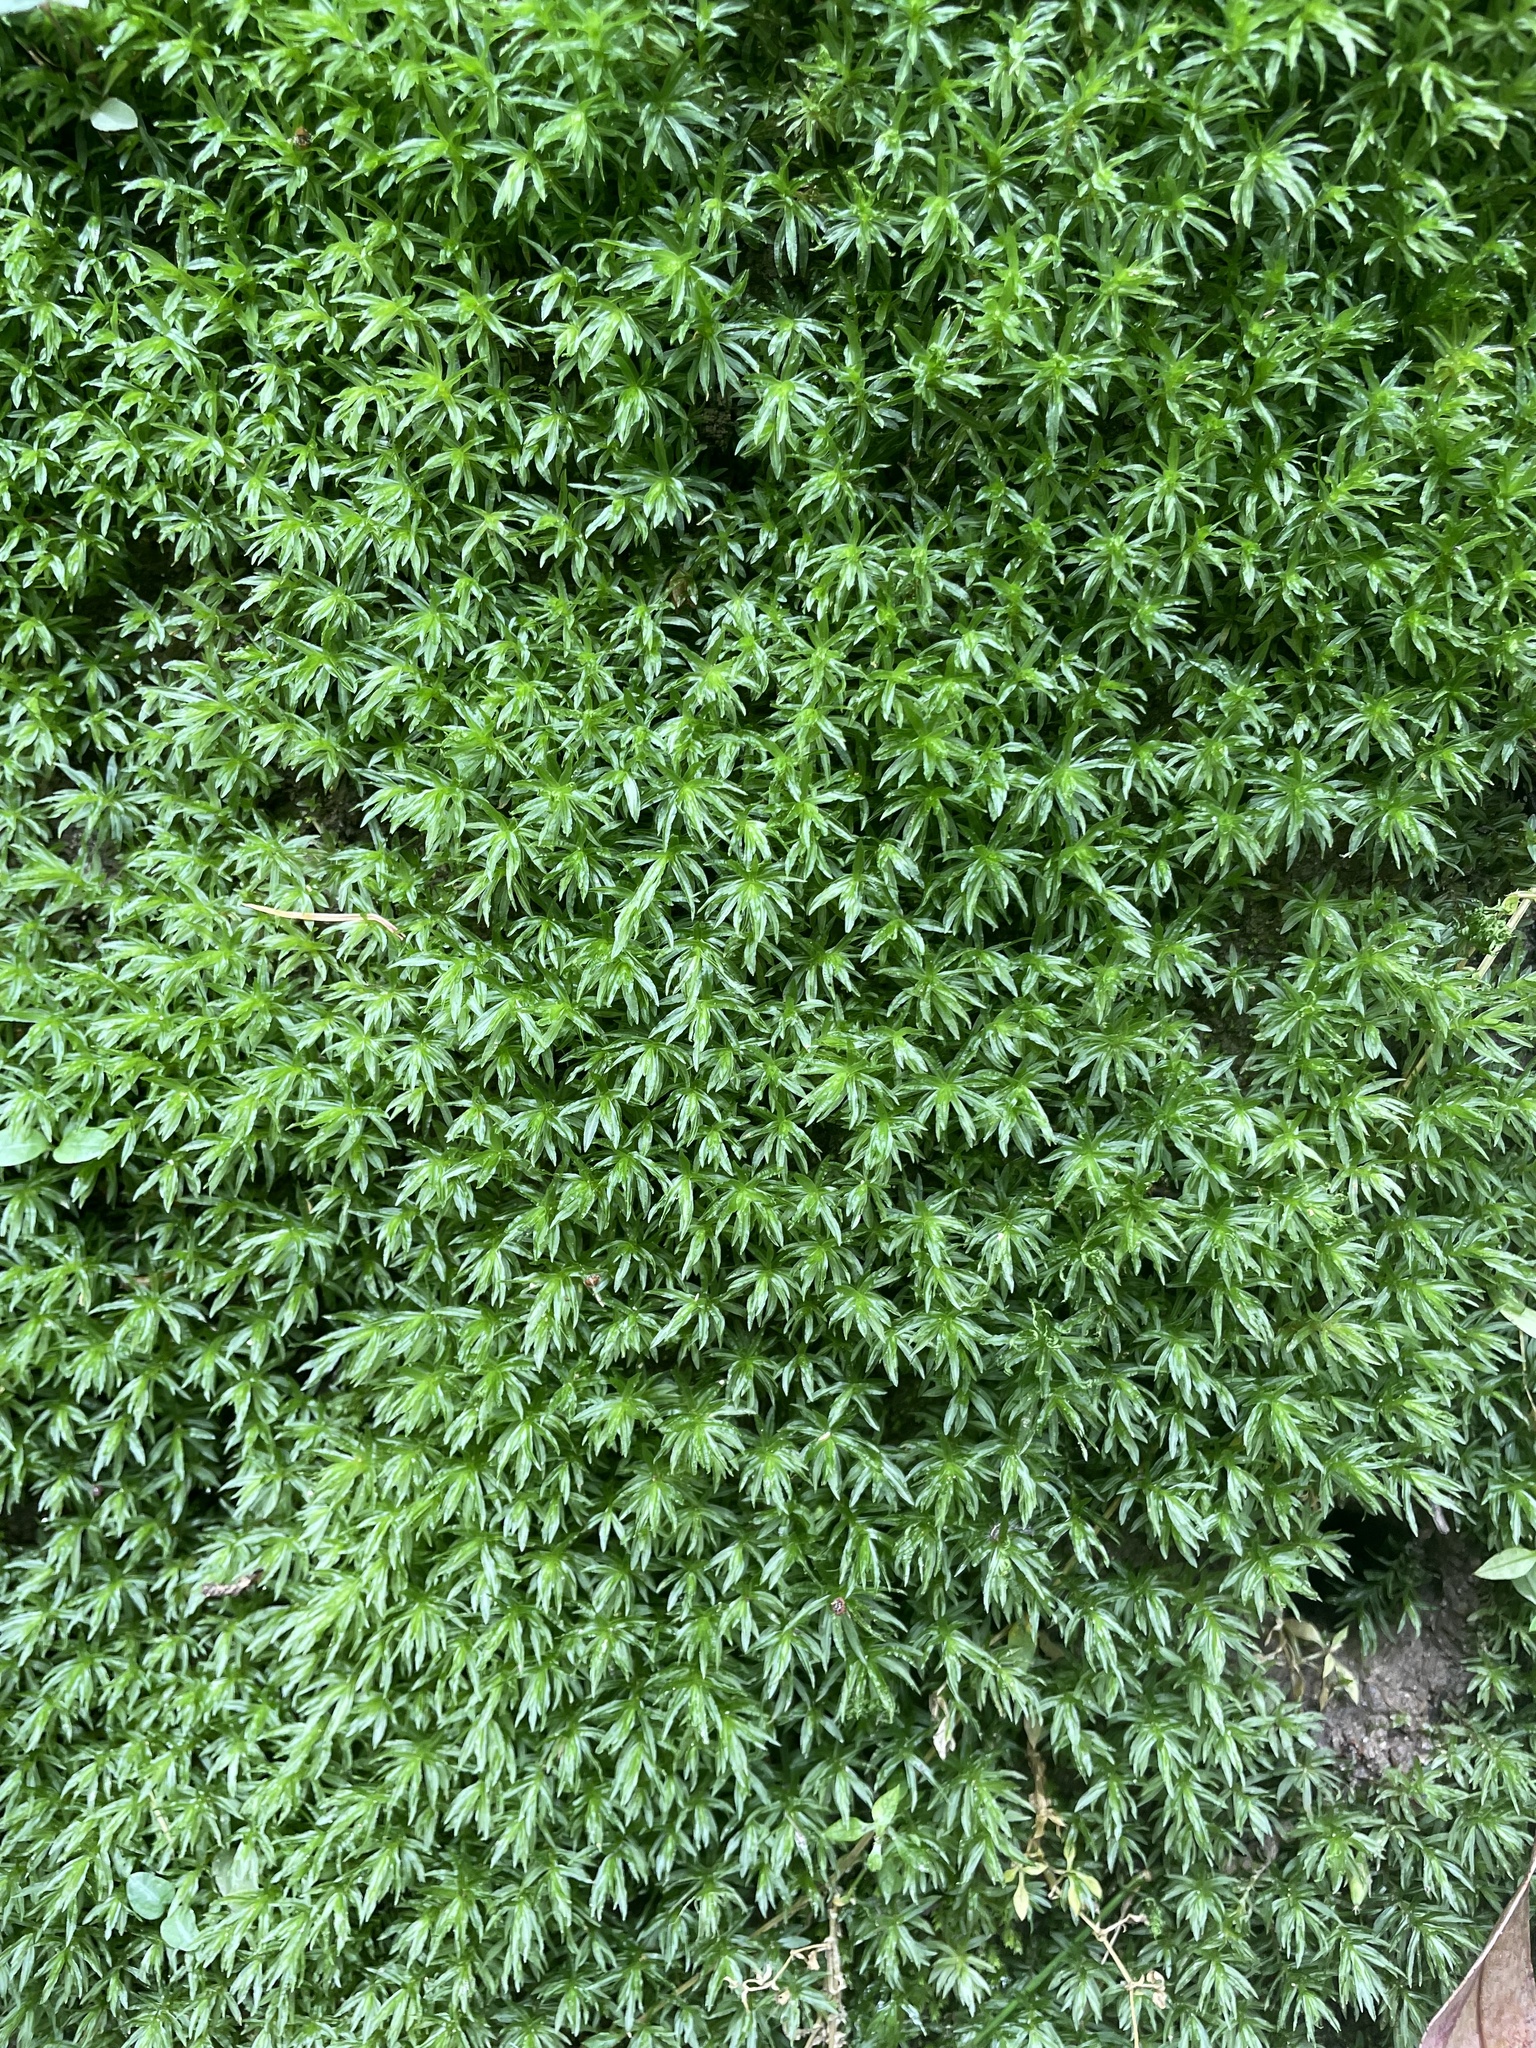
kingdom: Plantae
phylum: Bryophyta
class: Polytrichopsida
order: Polytrichales
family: Polytrichaceae
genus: Atrichum
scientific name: Atrichum androgynum
